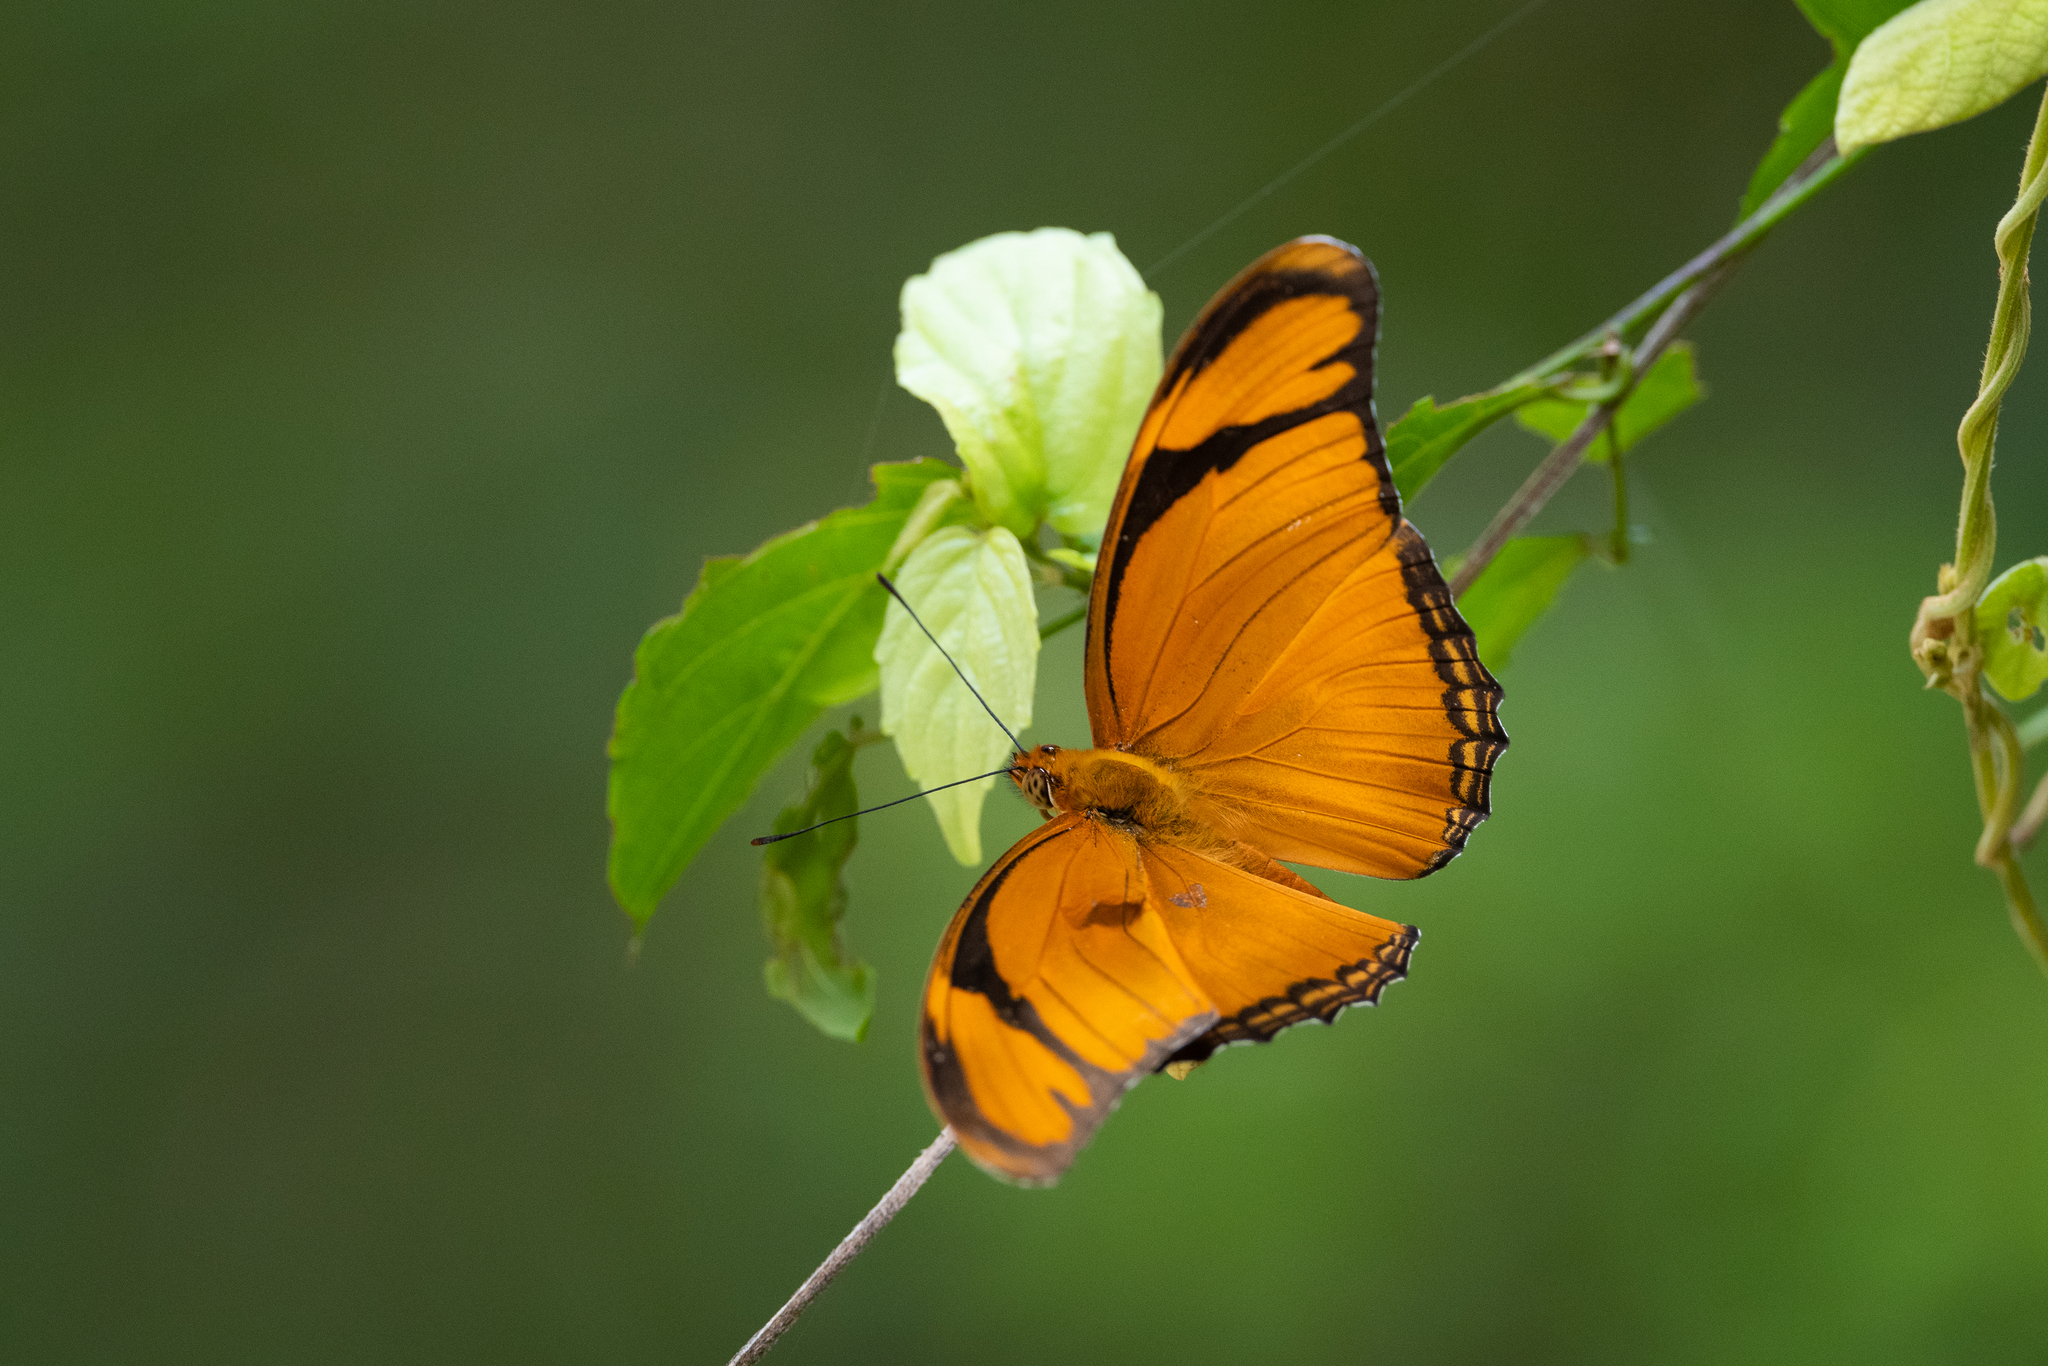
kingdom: Animalia
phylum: Arthropoda
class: Insecta
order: Lepidoptera
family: Nymphalidae
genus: Dryas
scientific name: Dryas iulia
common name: Flambeau
